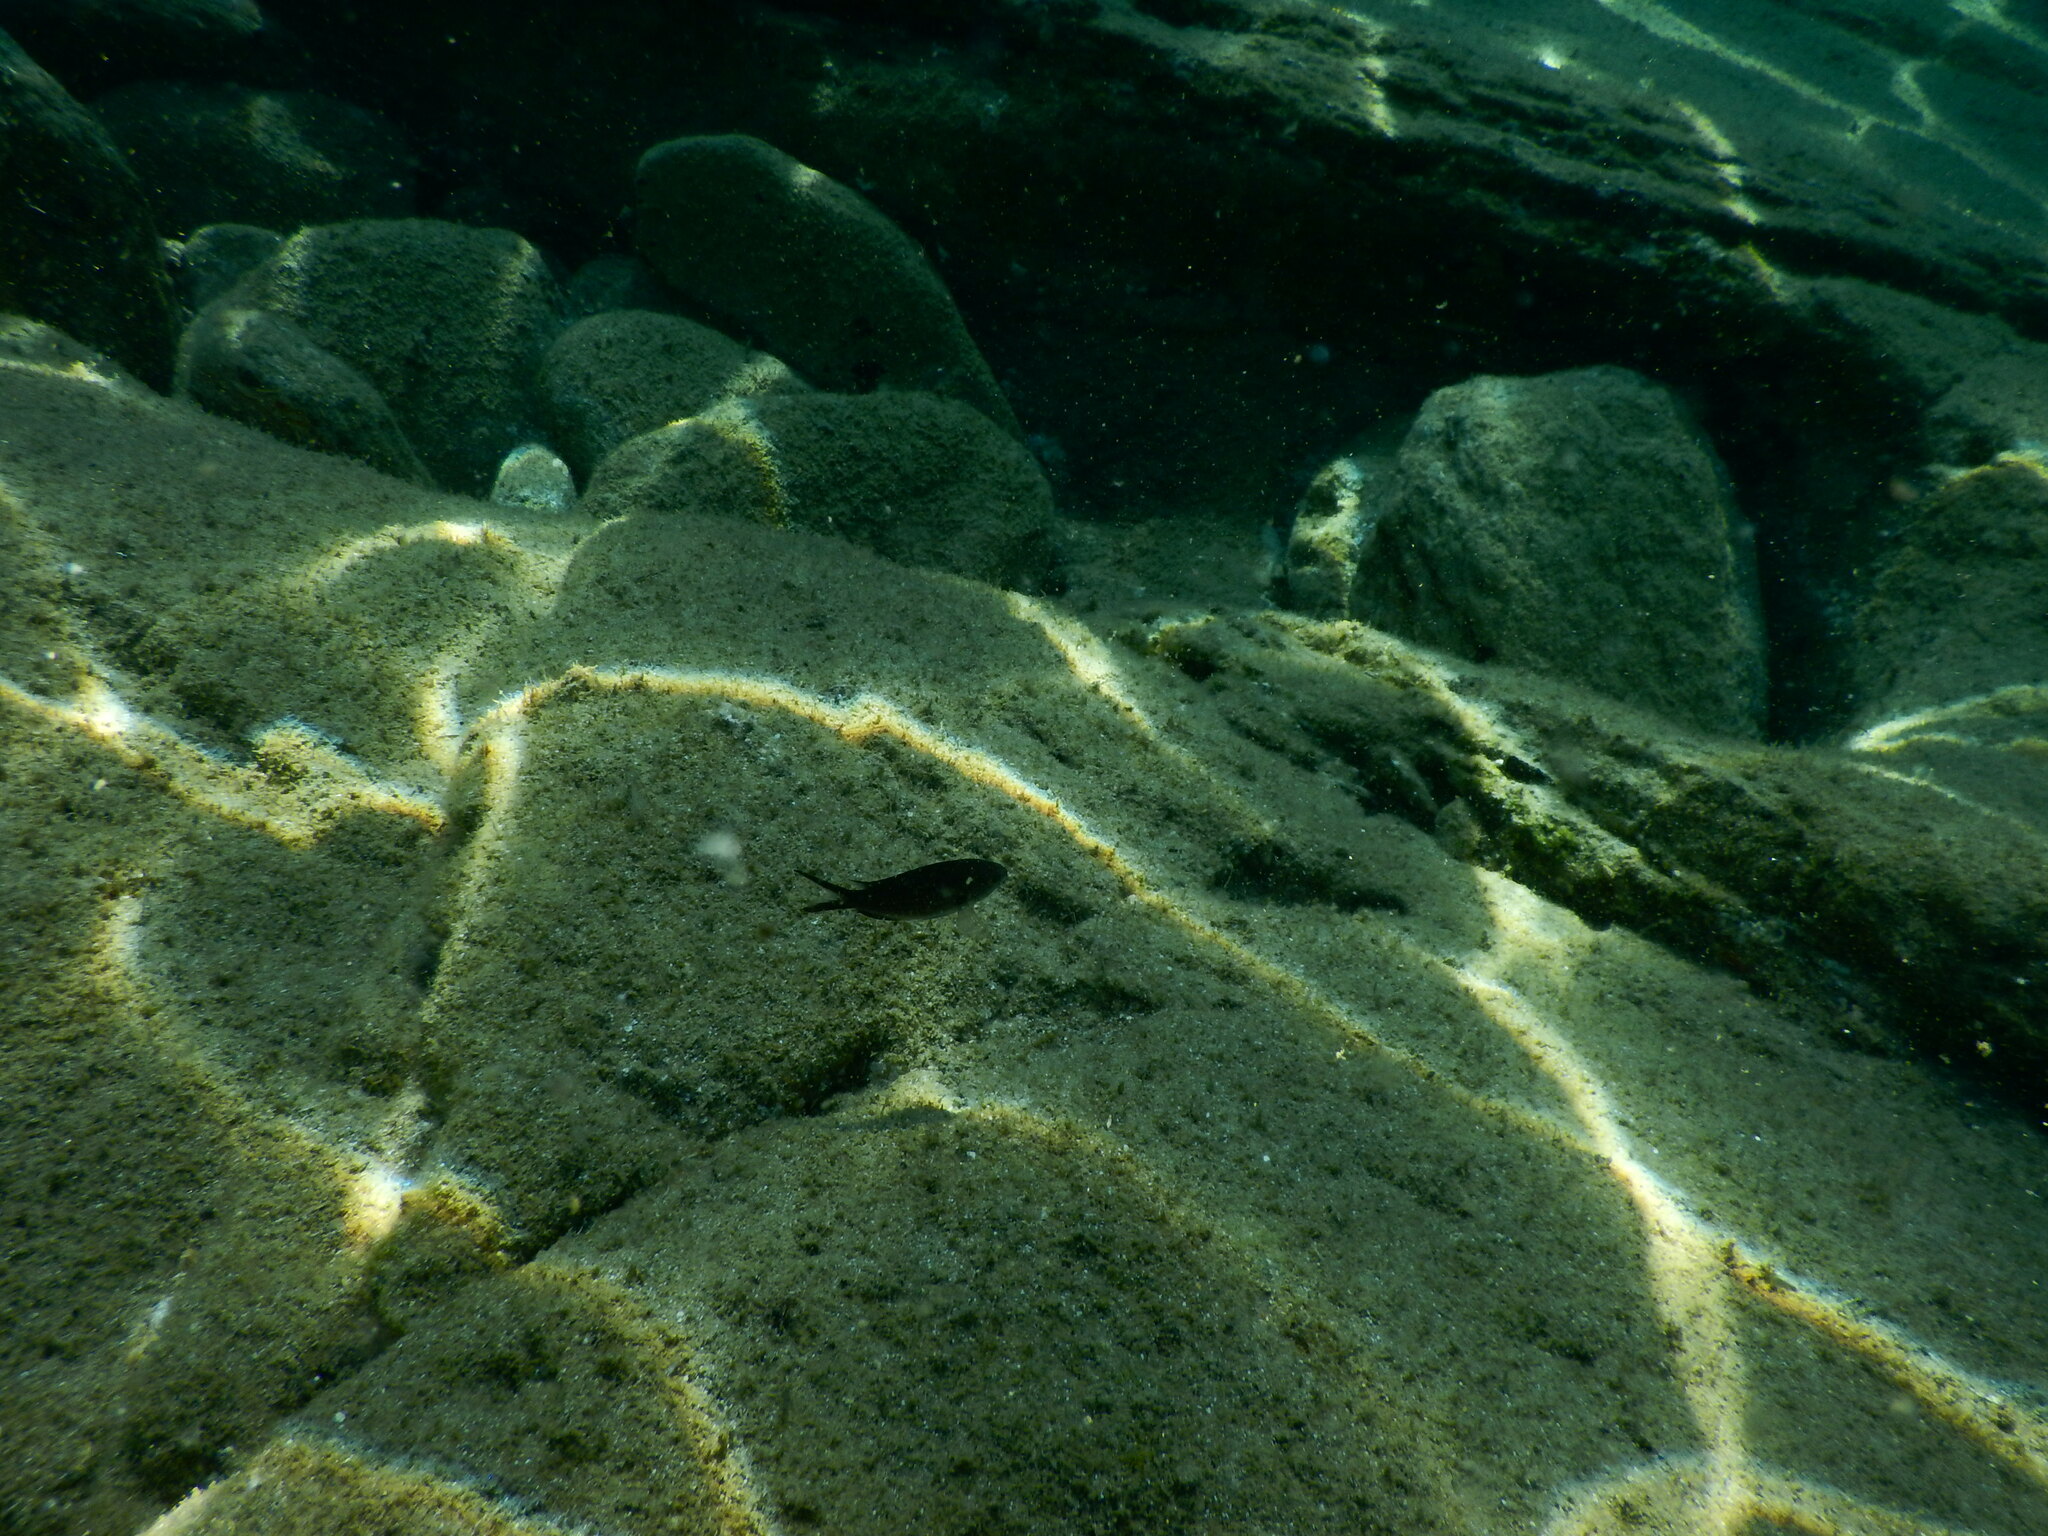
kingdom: Animalia
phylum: Chordata
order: Perciformes
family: Pomacentridae
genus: Chromis
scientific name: Chromis chromis
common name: Damselfish
